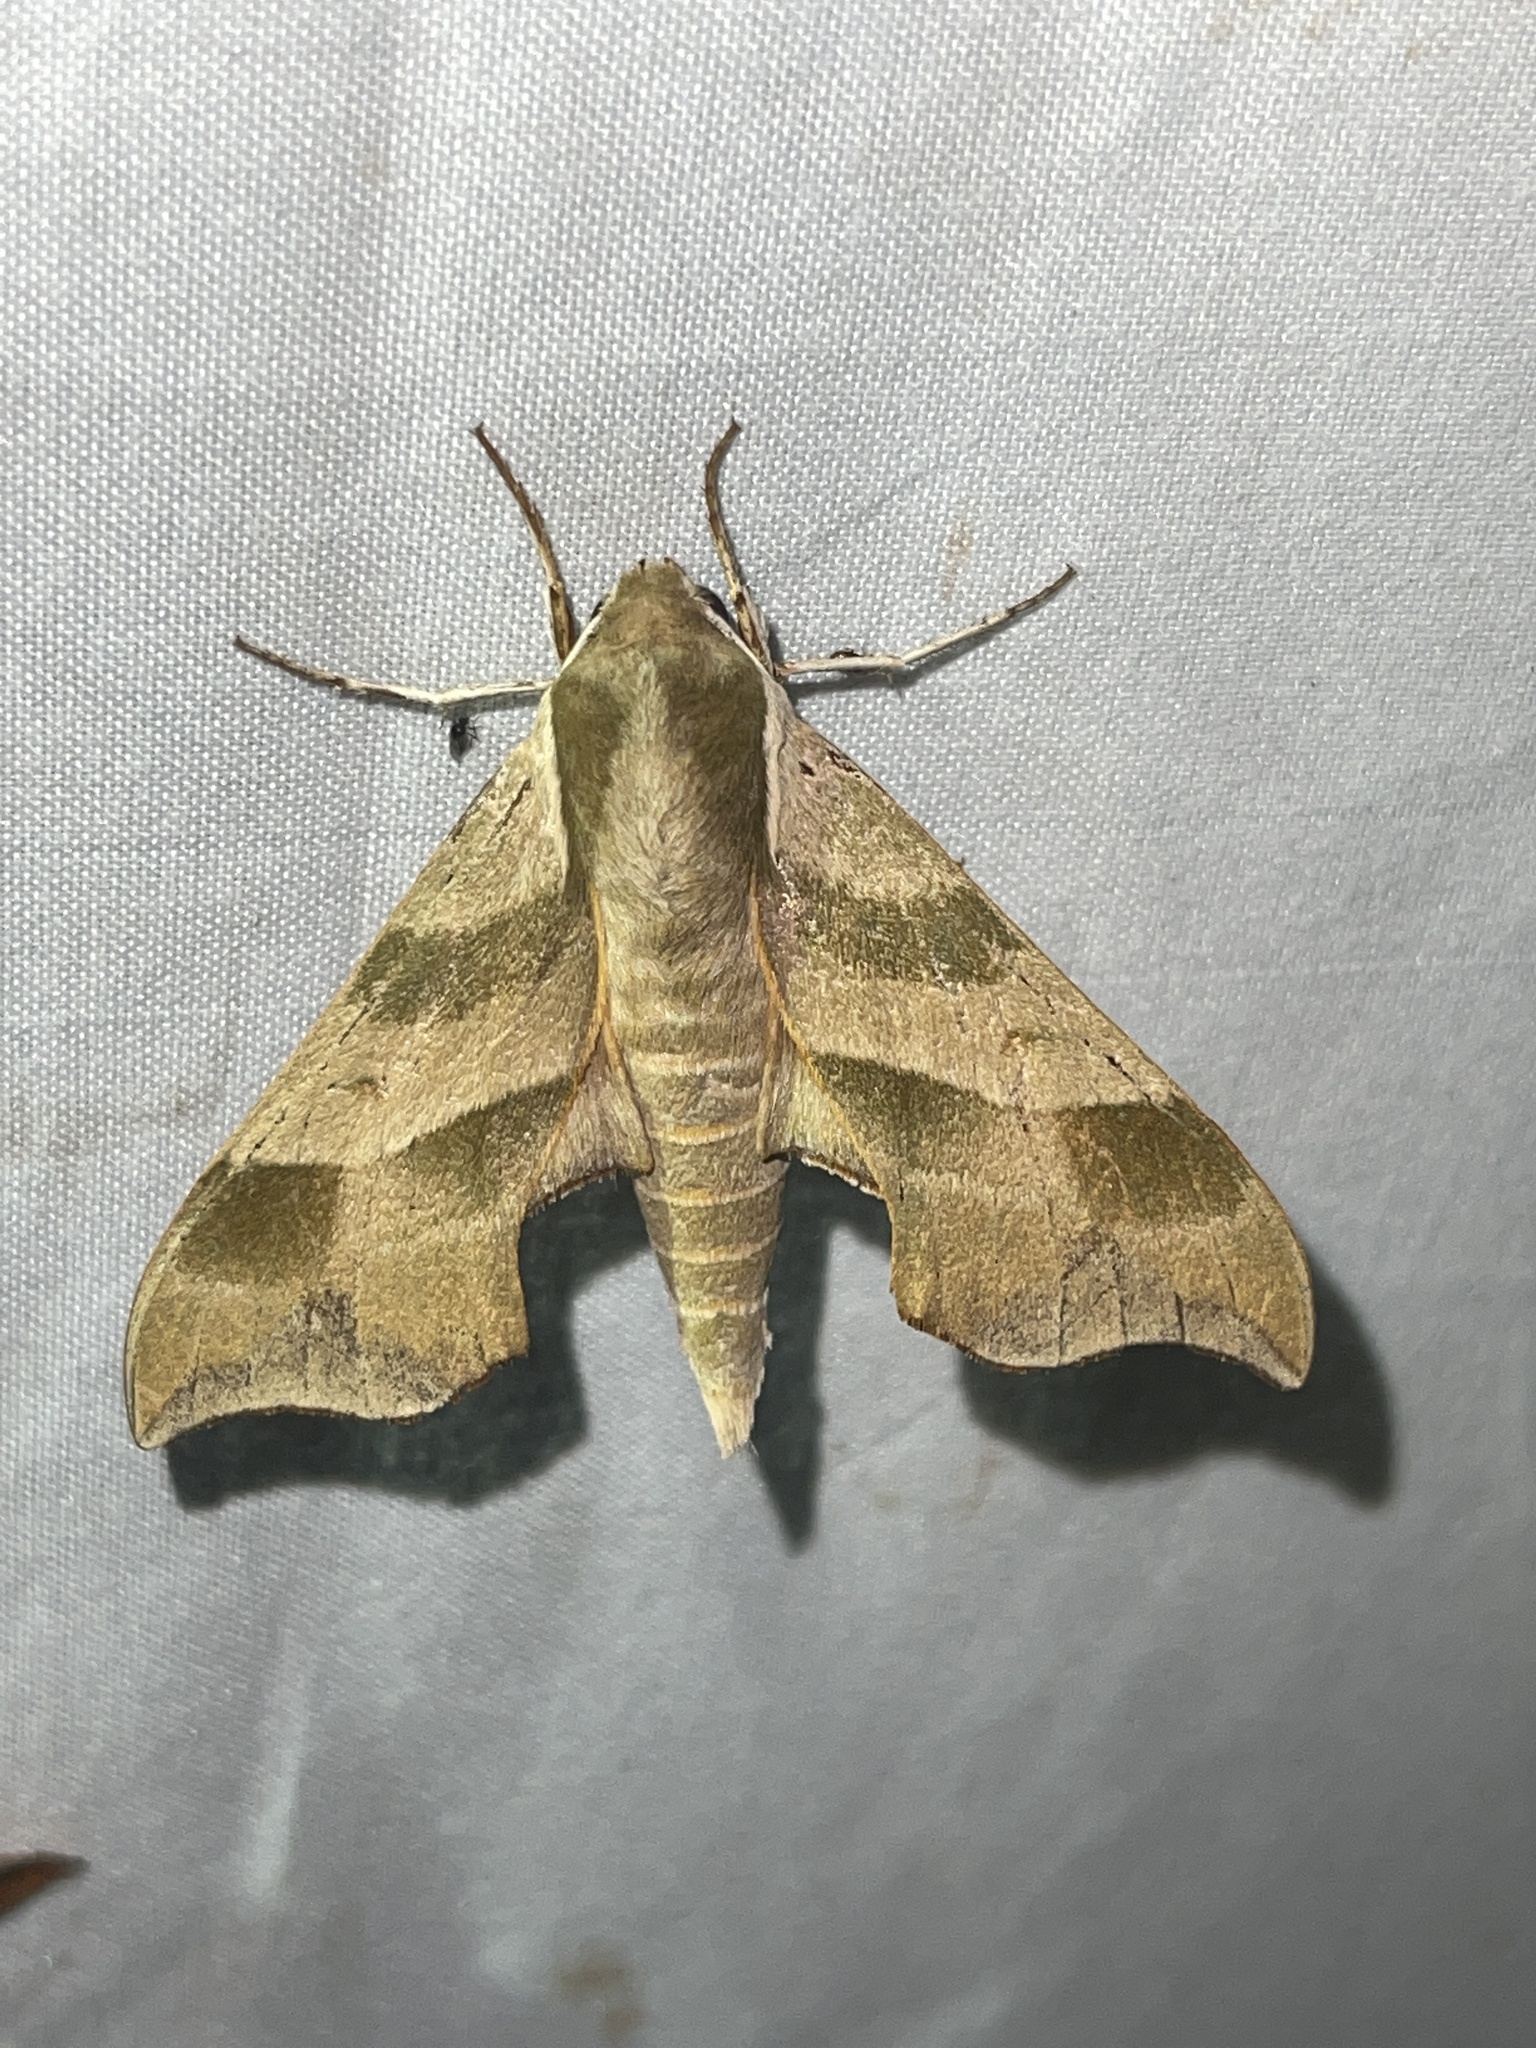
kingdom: Animalia
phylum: Arthropoda
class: Insecta
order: Lepidoptera
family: Sphingidae
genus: Darapsa
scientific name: Darapsa myron
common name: Hog sphinx
